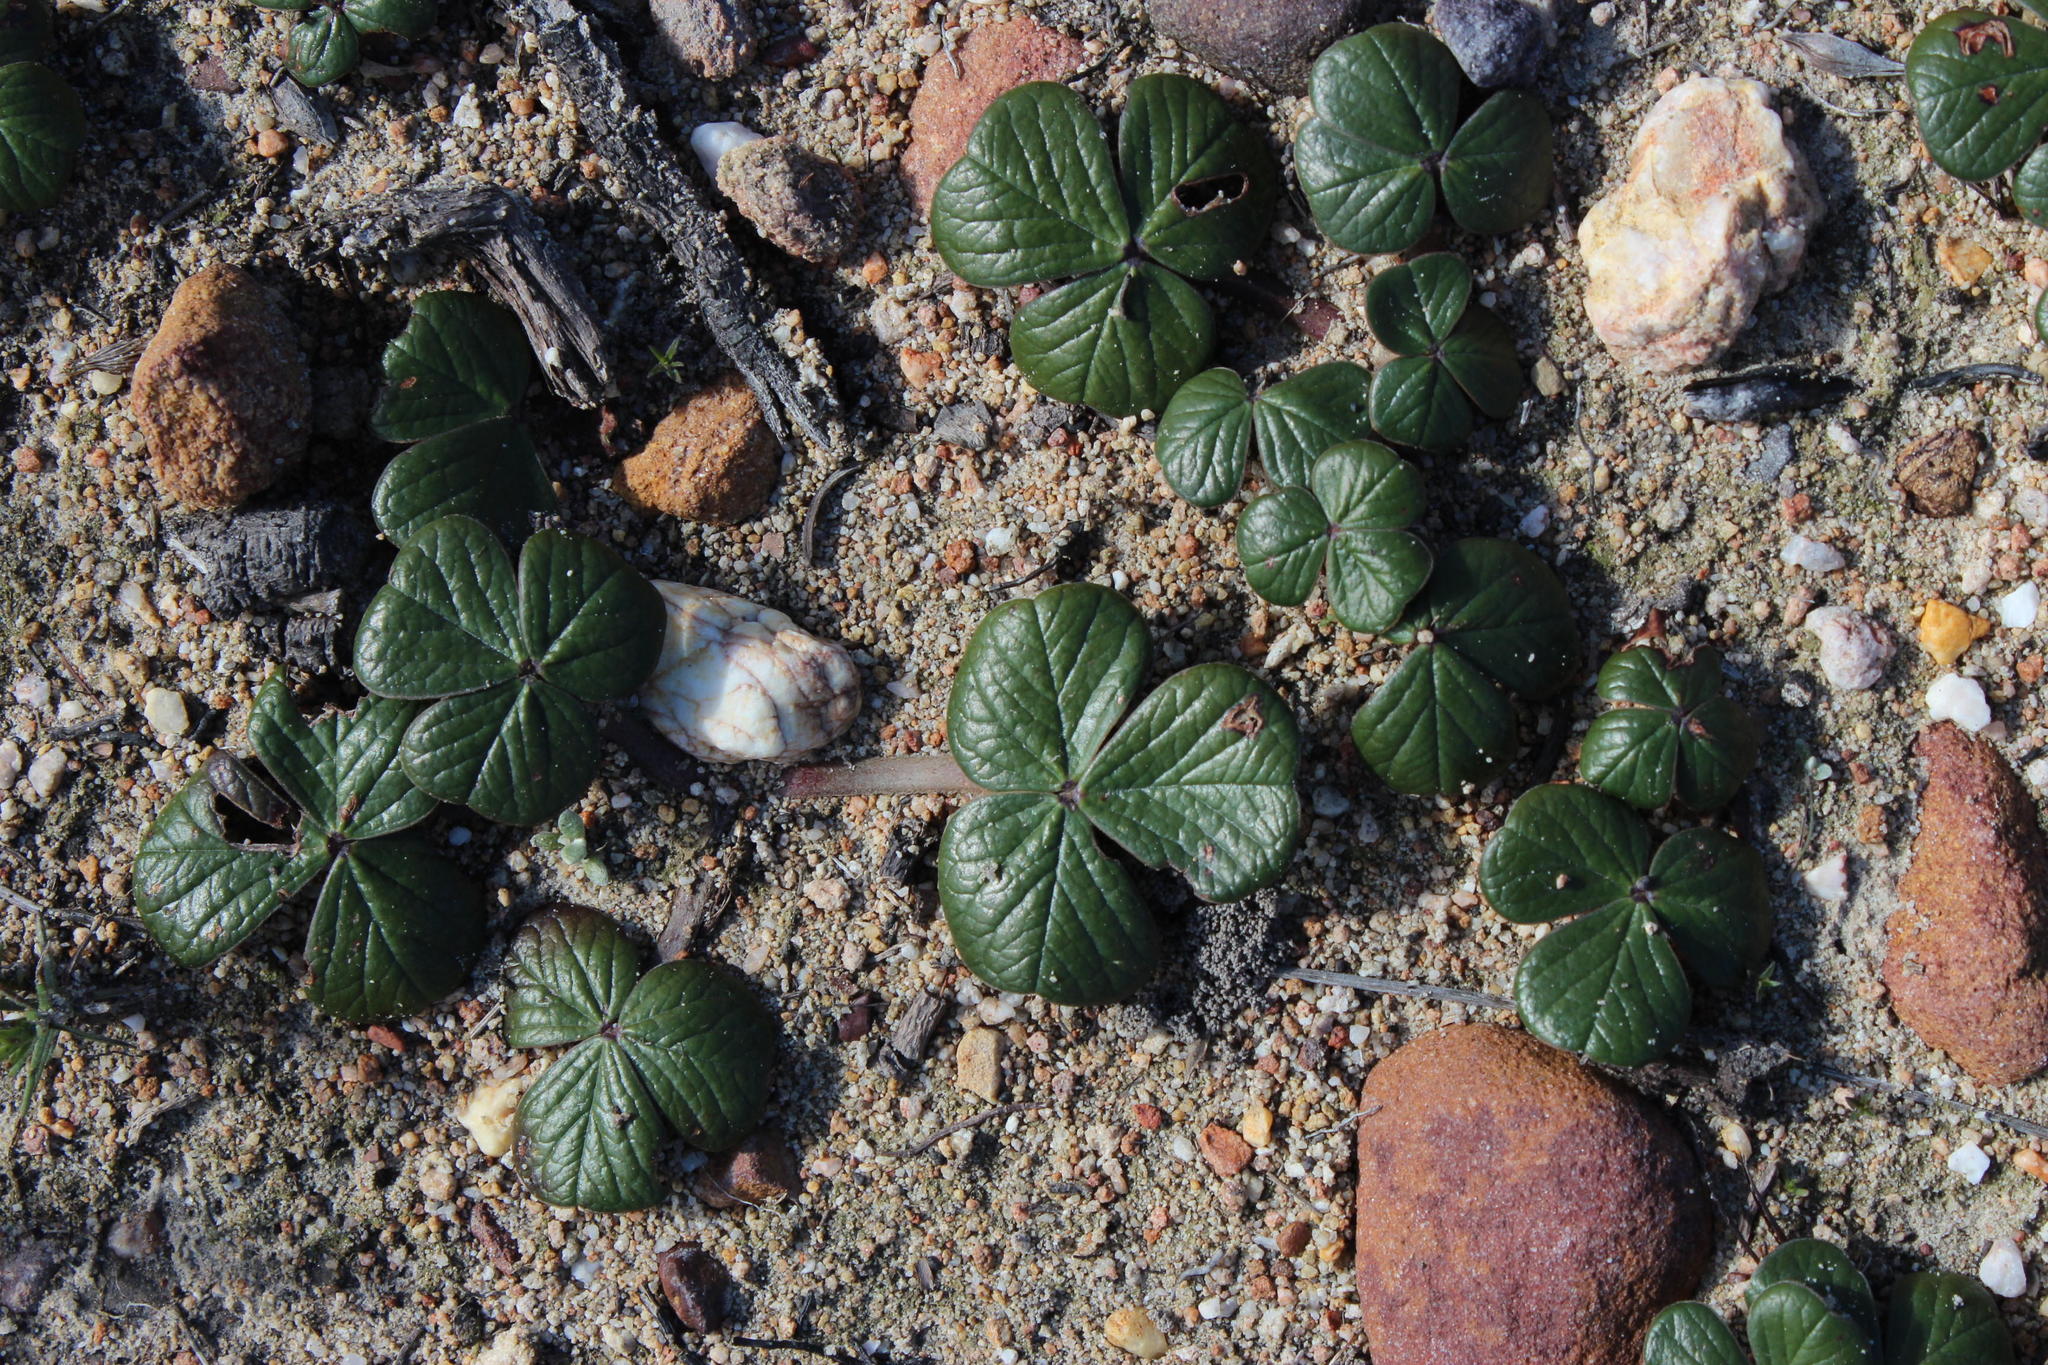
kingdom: Plantae
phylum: Tracheophyta
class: Magnoliopsida
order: Oxalidales
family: Oxalidaceae
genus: Oxalis
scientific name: Oxalis truncatula
